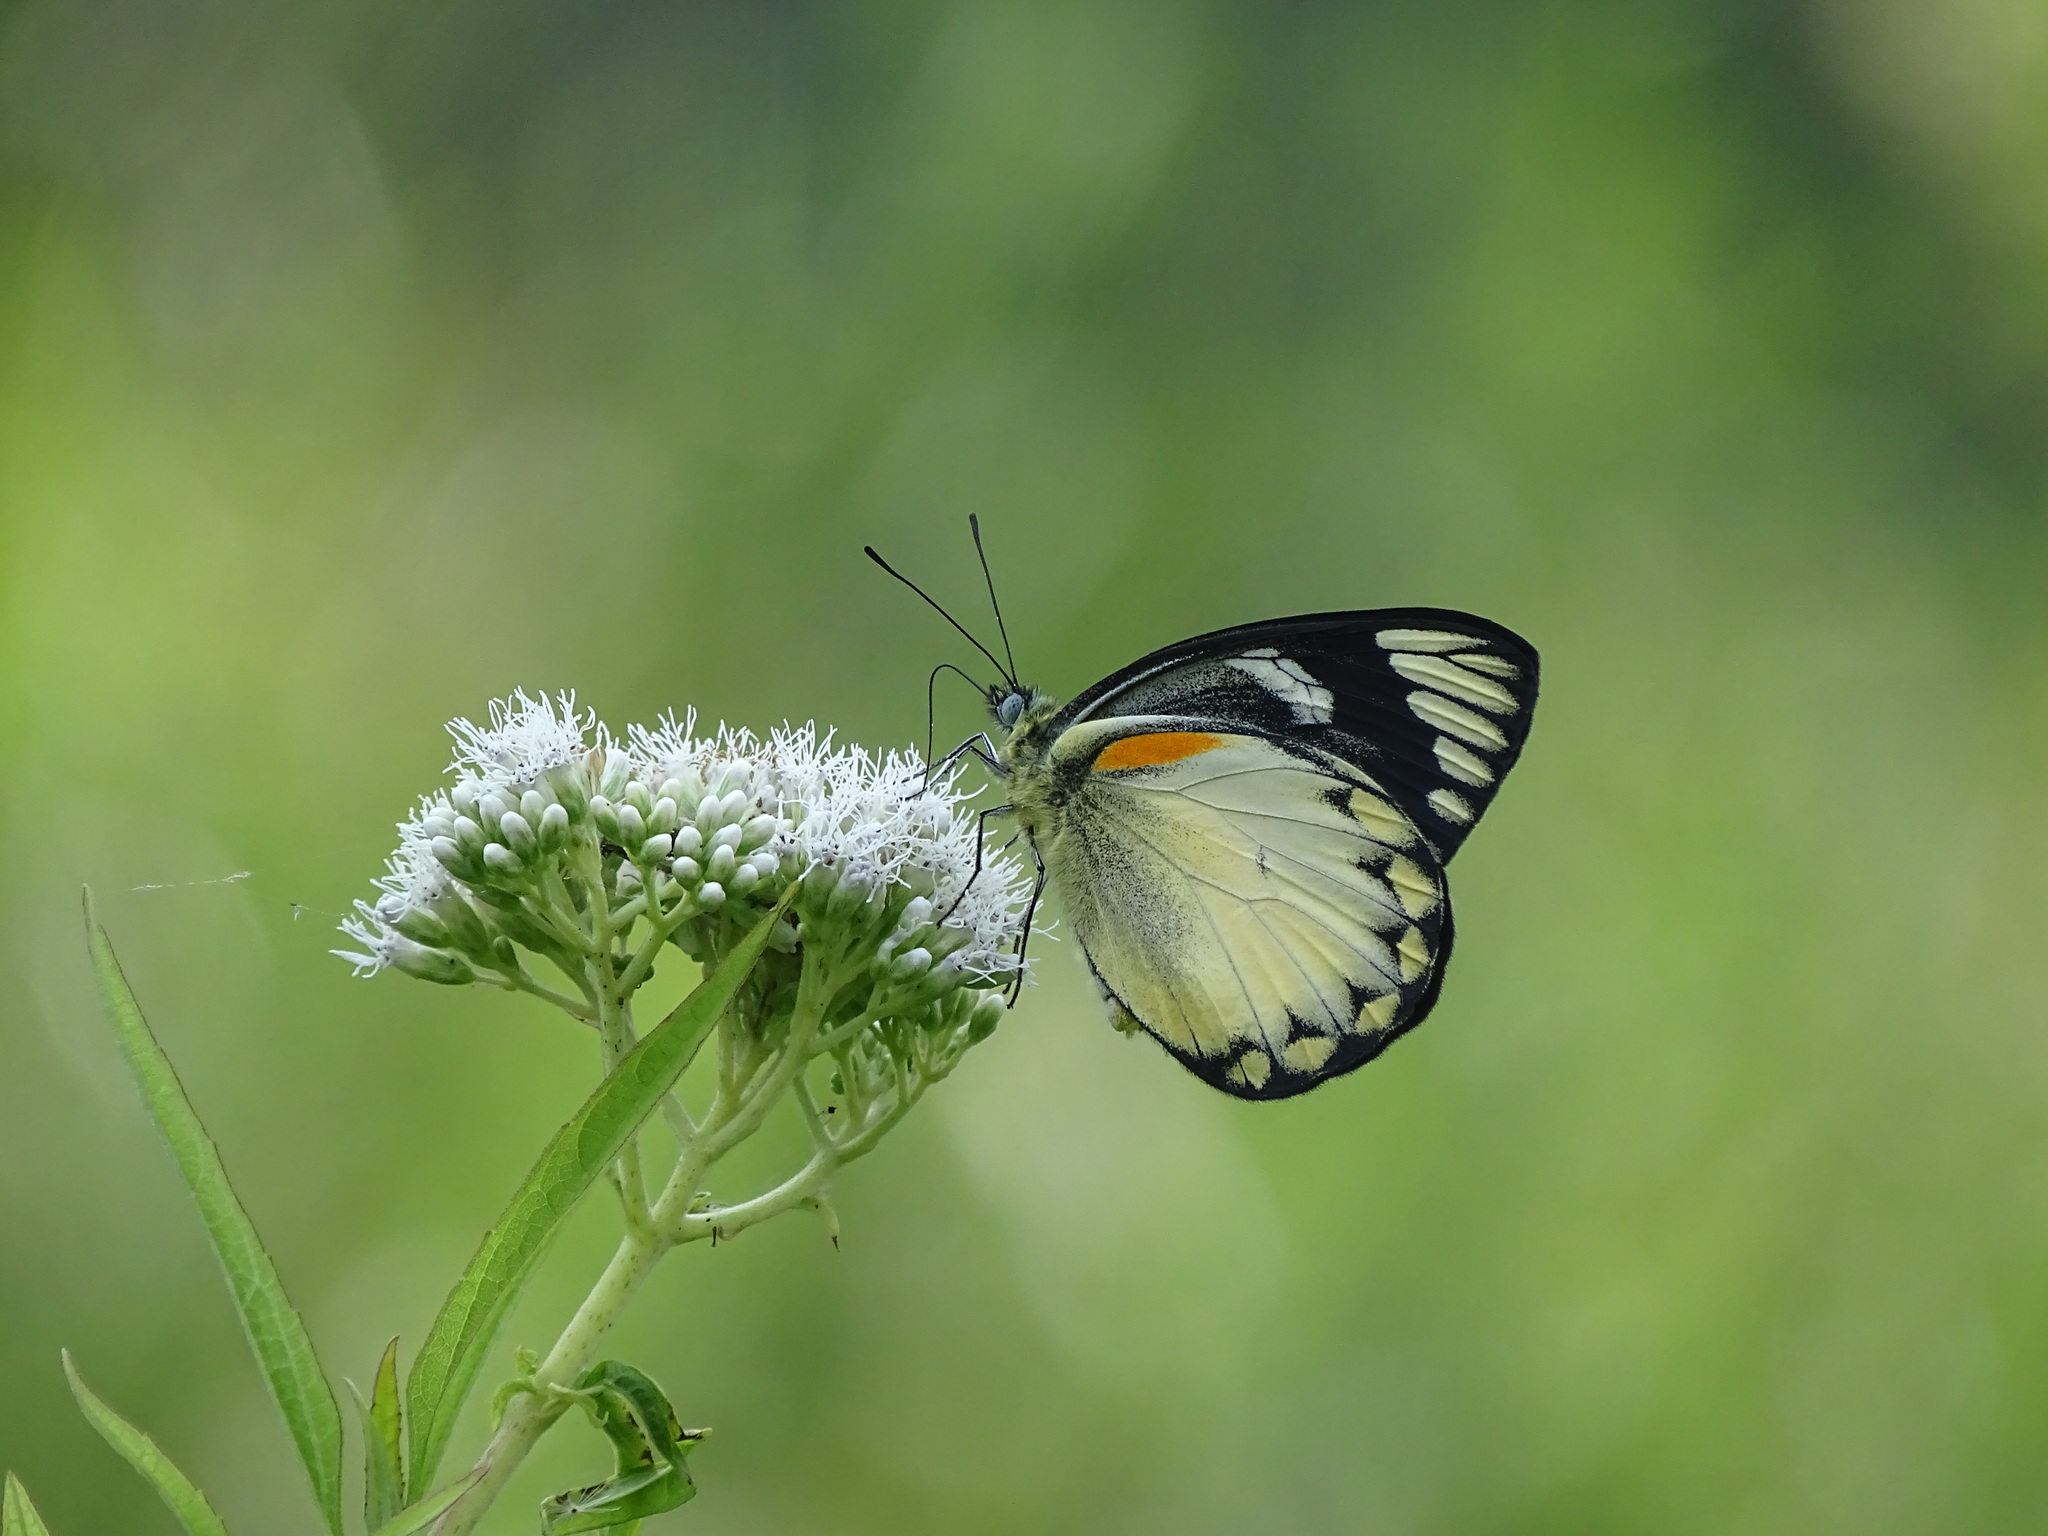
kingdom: Animalia
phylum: Arthropoda
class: Insecta
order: Lepidoptera
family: Pieridae
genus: Delias
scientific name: Delias belisama
